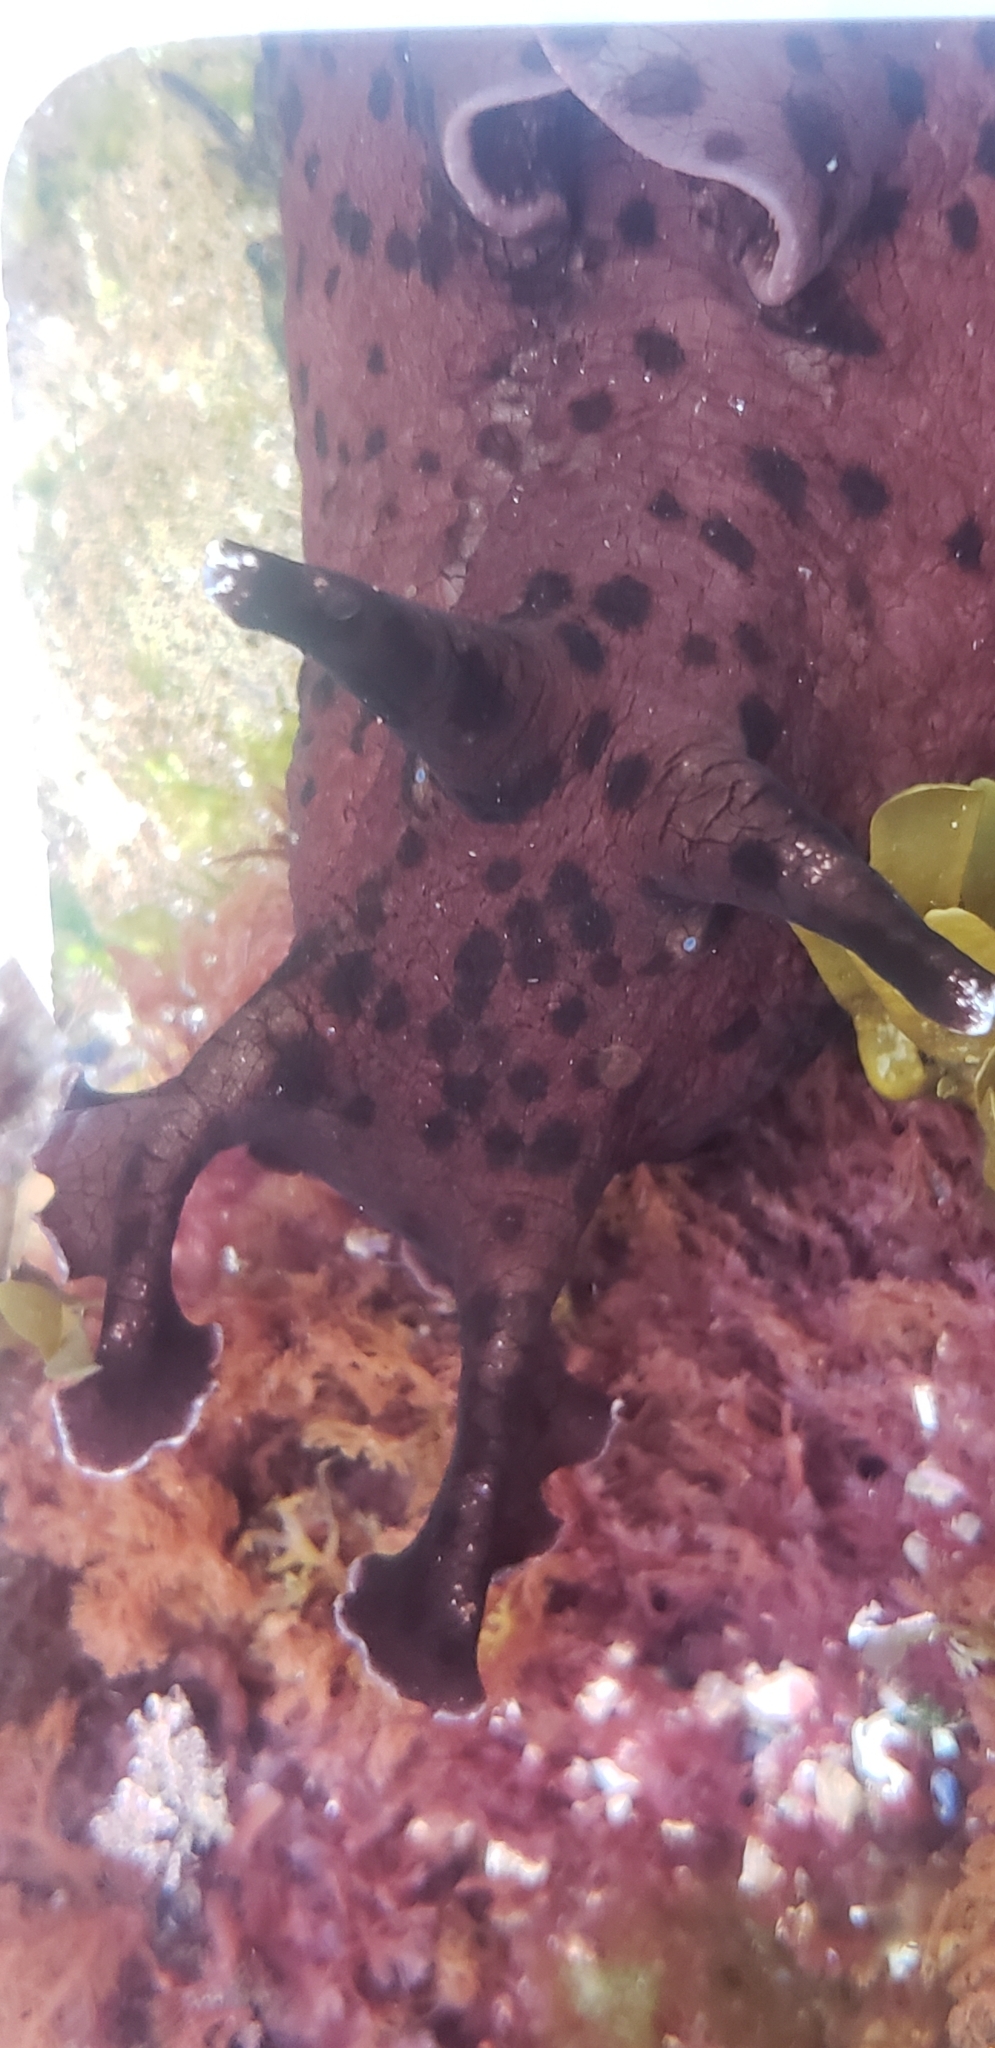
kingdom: Animalia
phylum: Mollusca
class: Gastropoda
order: Aplysiida
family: Aplysiidae
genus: Aplysia
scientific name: Aplysia californica
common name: California seahare
